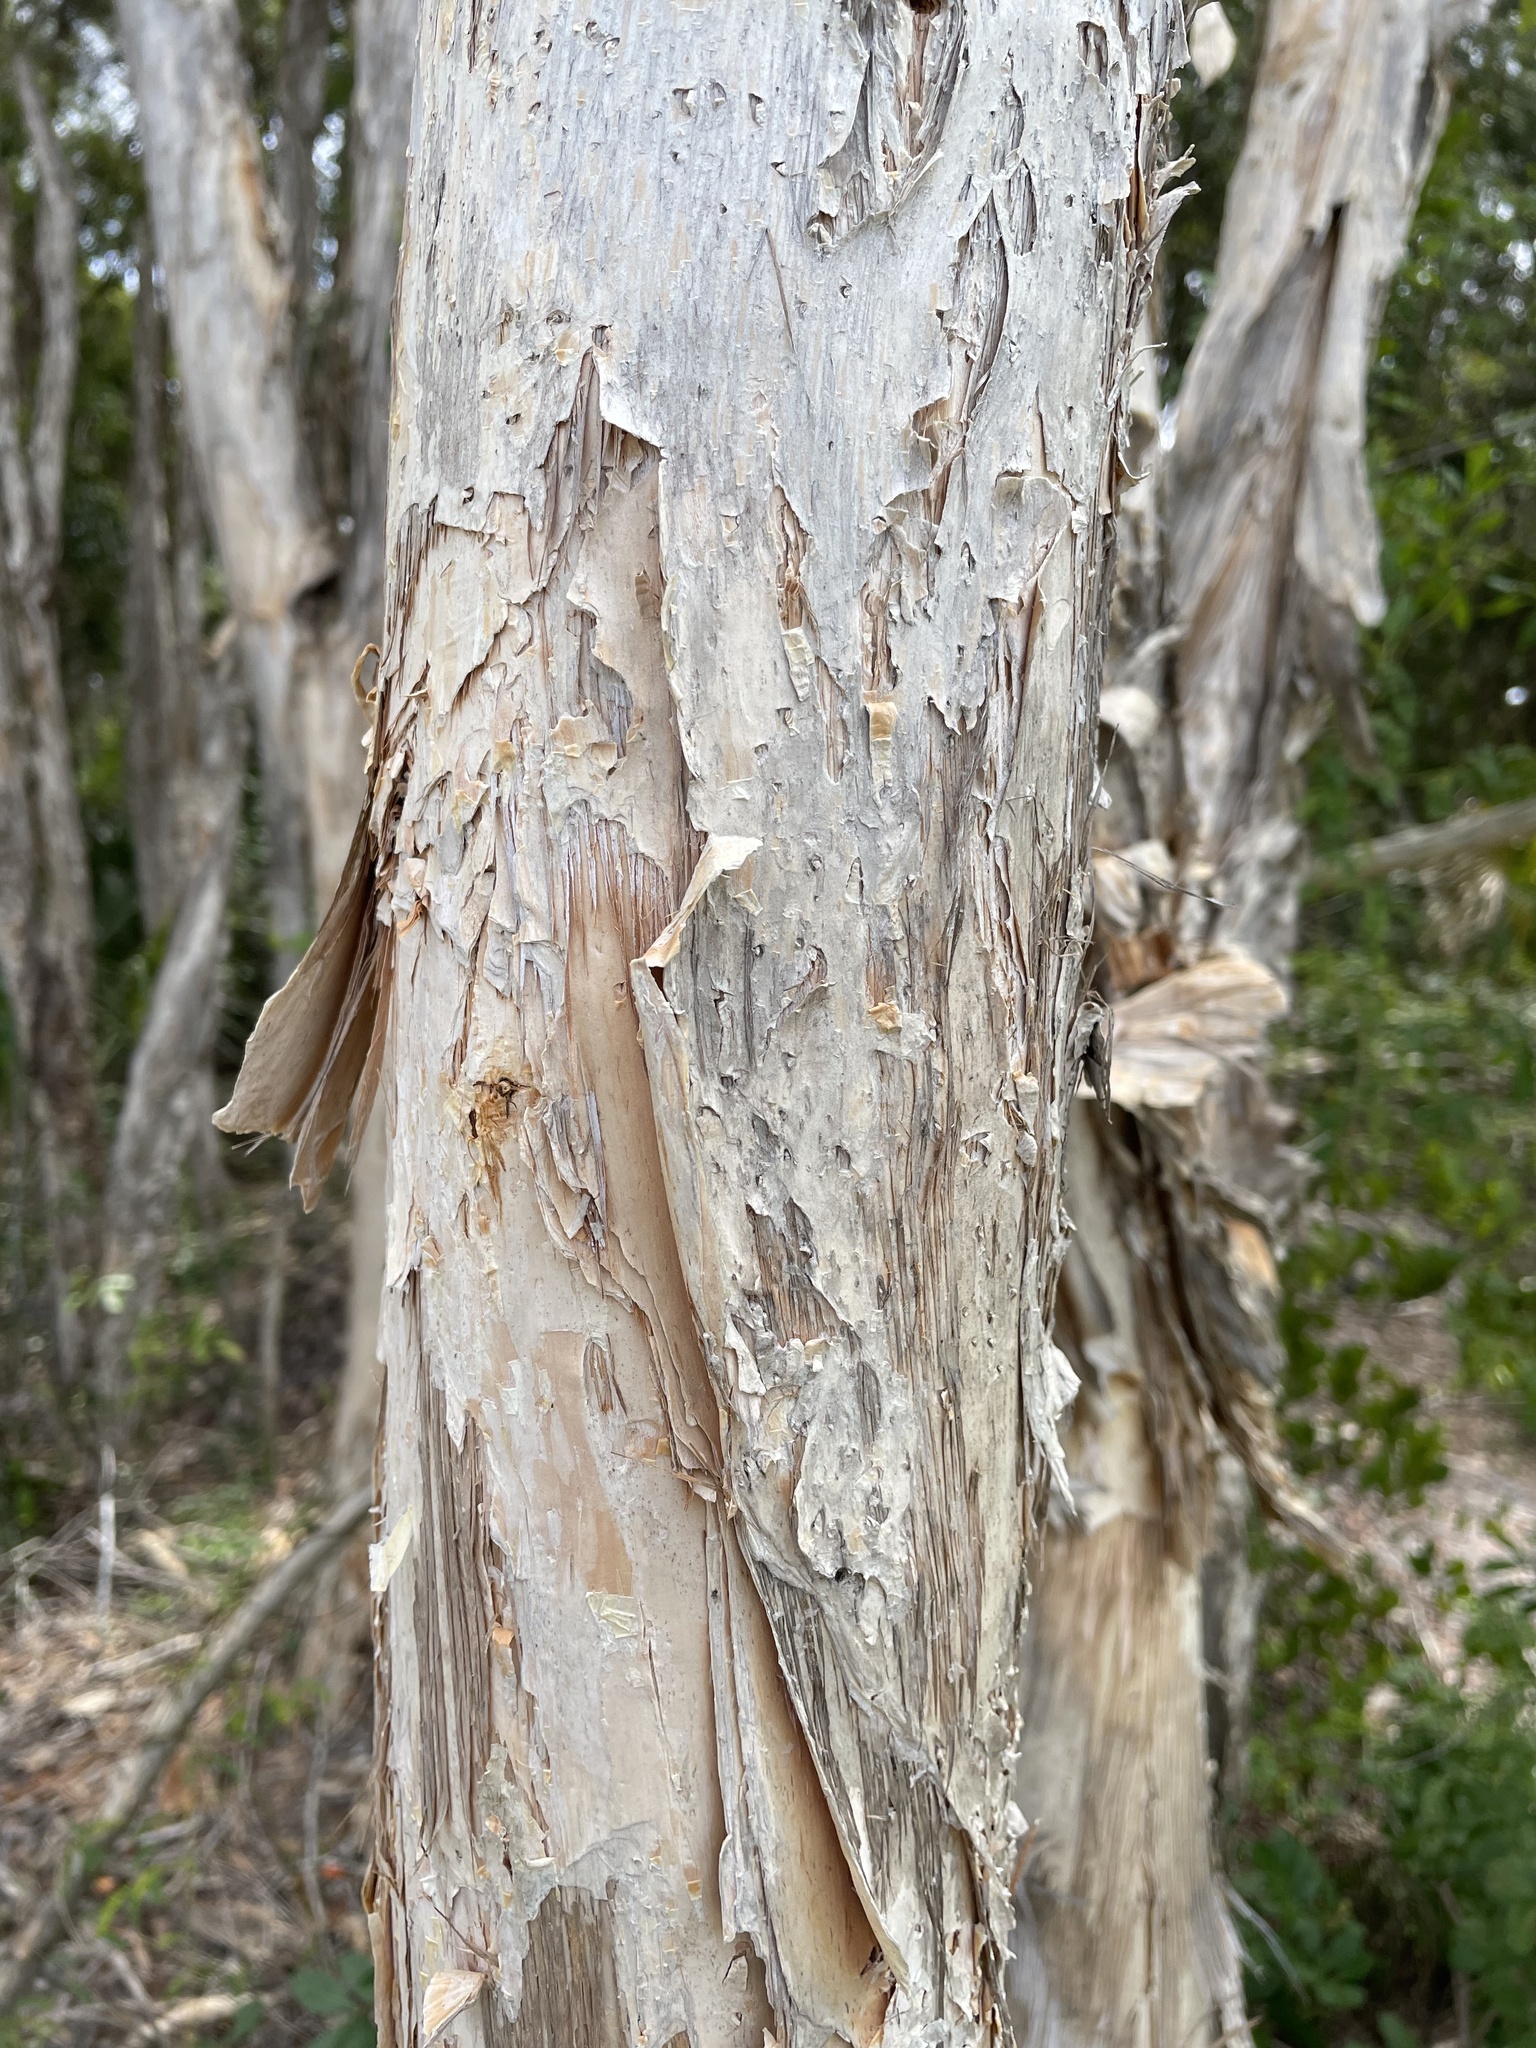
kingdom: Plantae
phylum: Tracheophyta
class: Magnoliopsida
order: Myrtales
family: Myrtaceae
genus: Melaleuca
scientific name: Melaleuca quinquenervia
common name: Punktree
